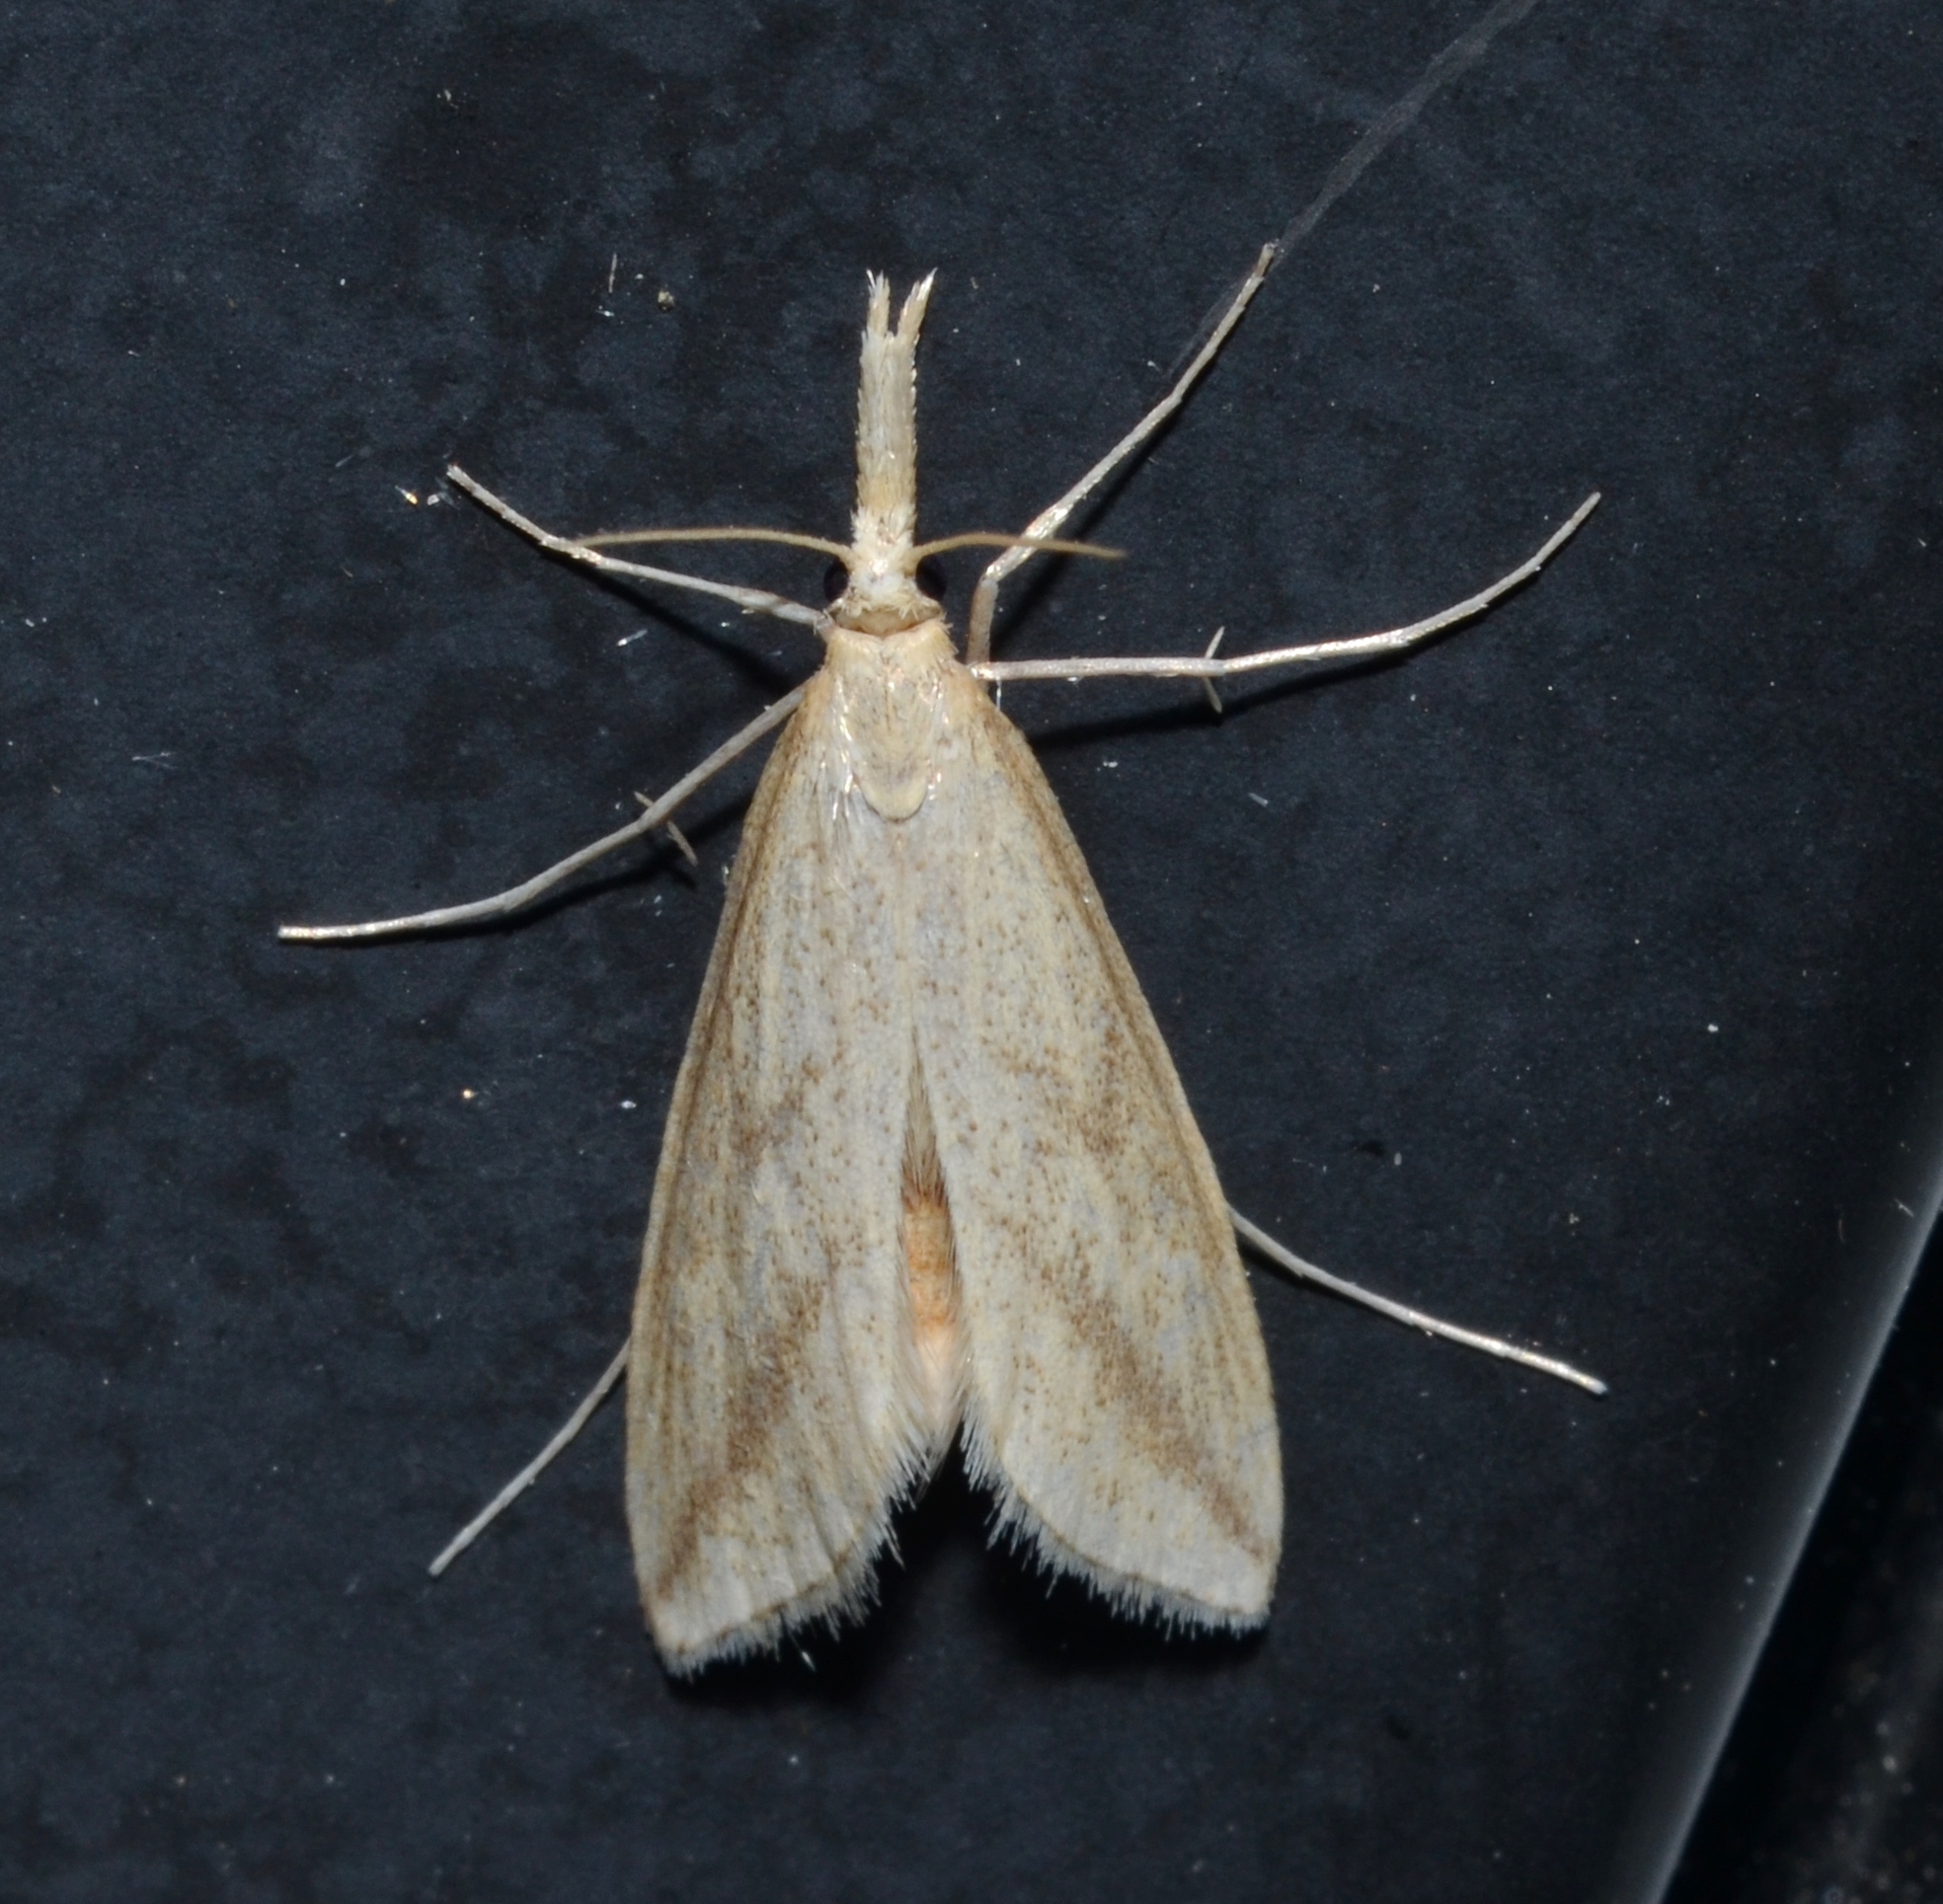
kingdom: Animalia
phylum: Arthropoda
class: Insecta
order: Lepidoptera
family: Crambidae
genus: Donacaula
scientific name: Donacaula longirostrallus
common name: Long-beaked donacaula moth
